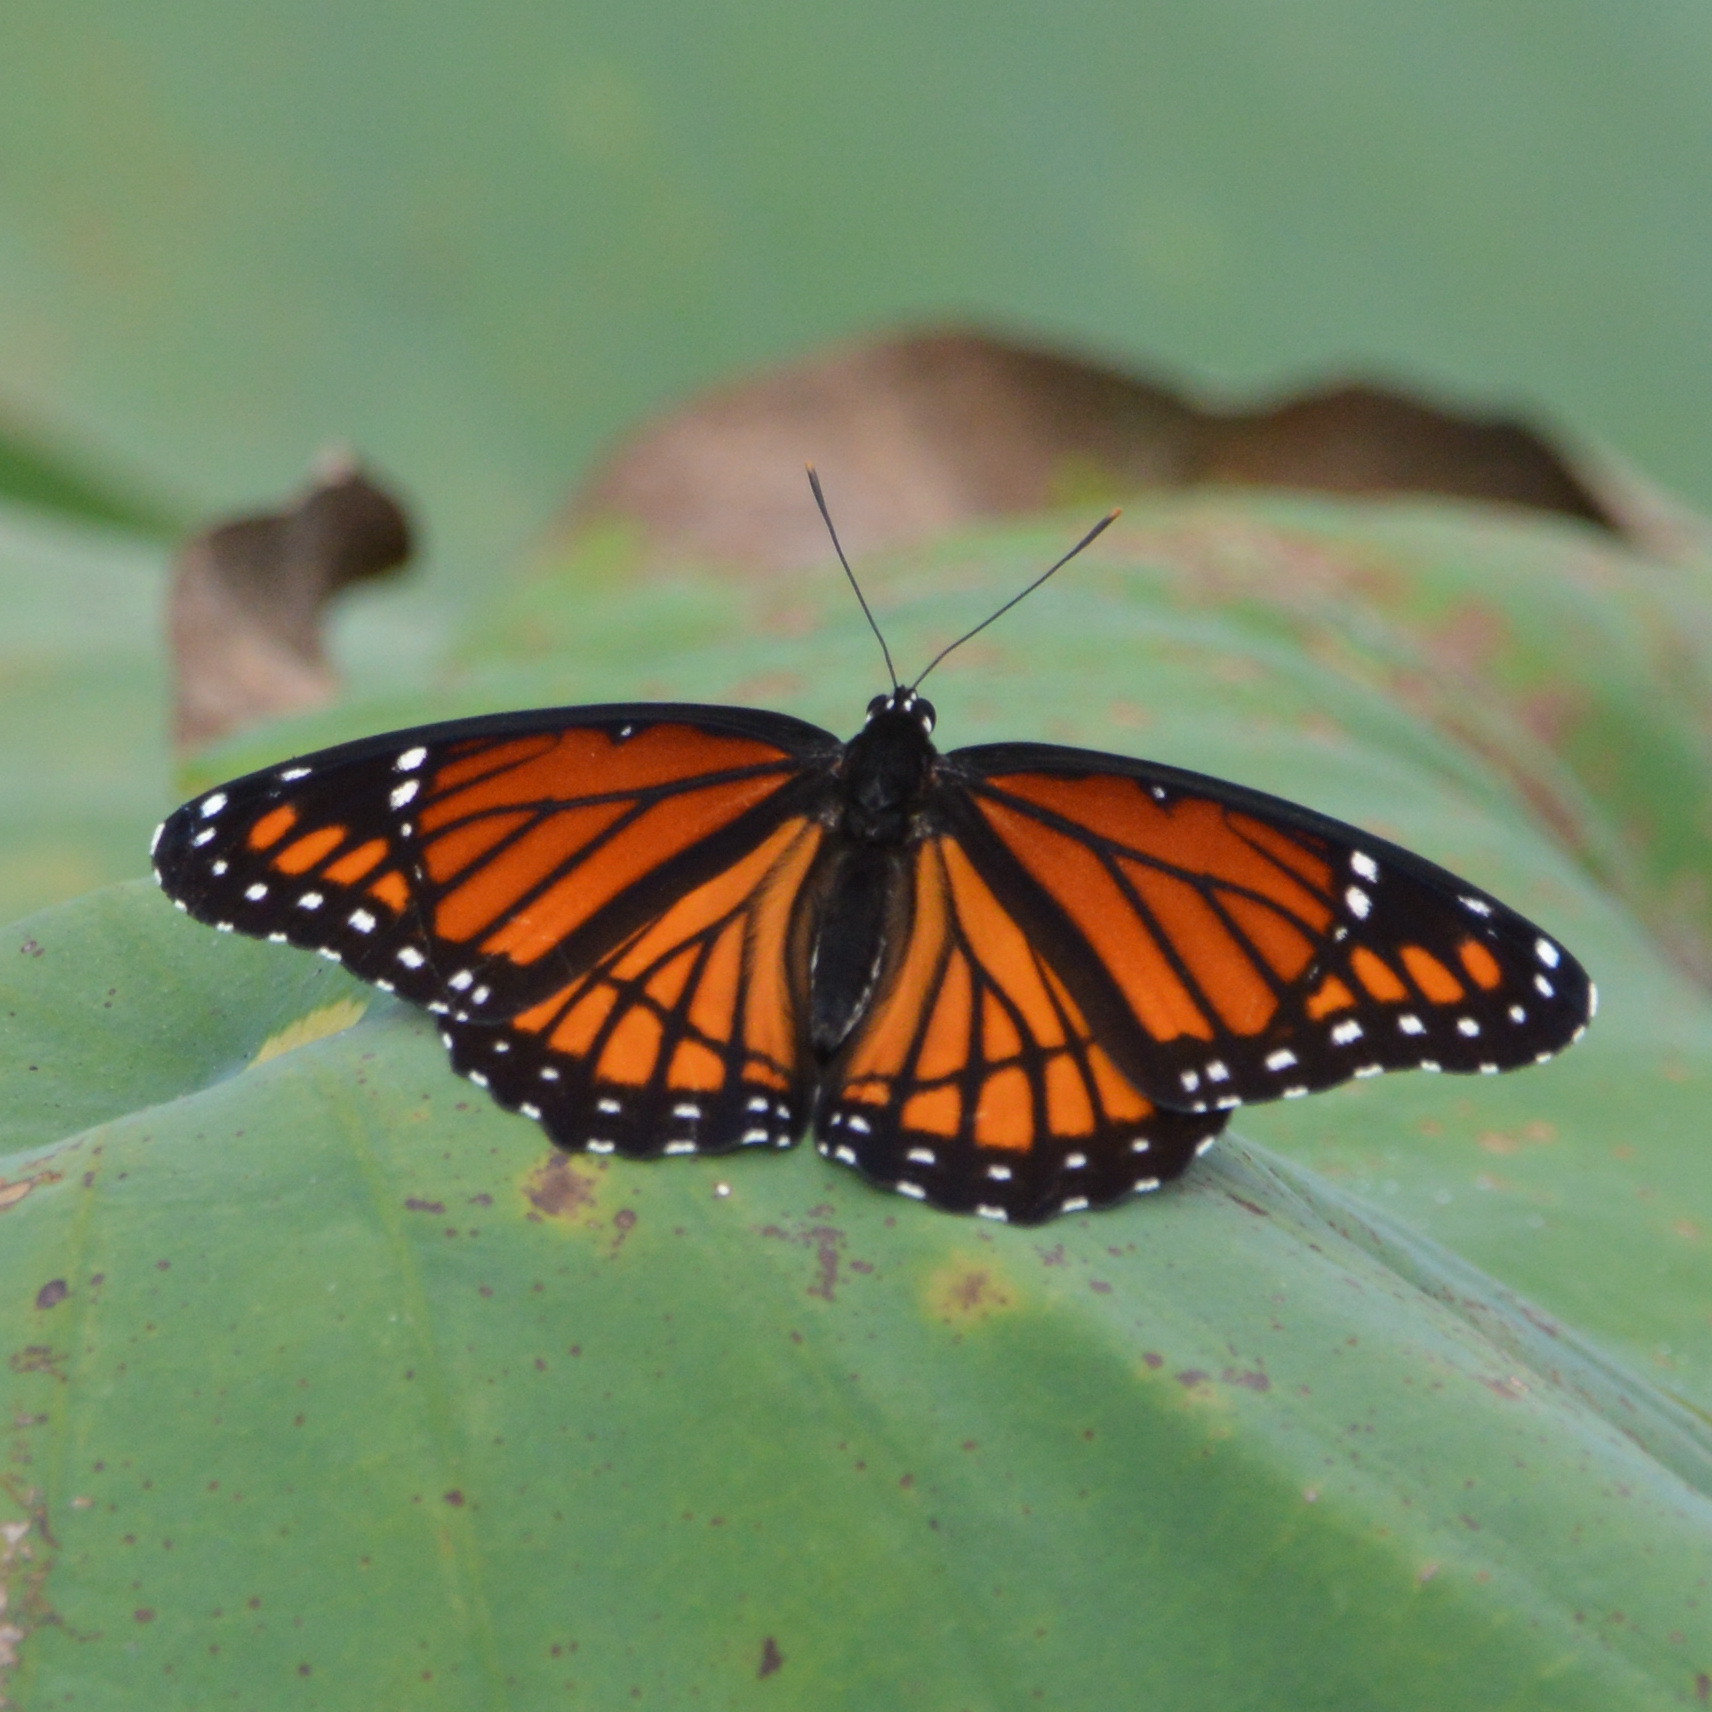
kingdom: Animalia
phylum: Arthropoda
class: Insecta
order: Lepidoptera
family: Nymphalidae
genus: Limenitis
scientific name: Limenitis archippus
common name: Viceroy
